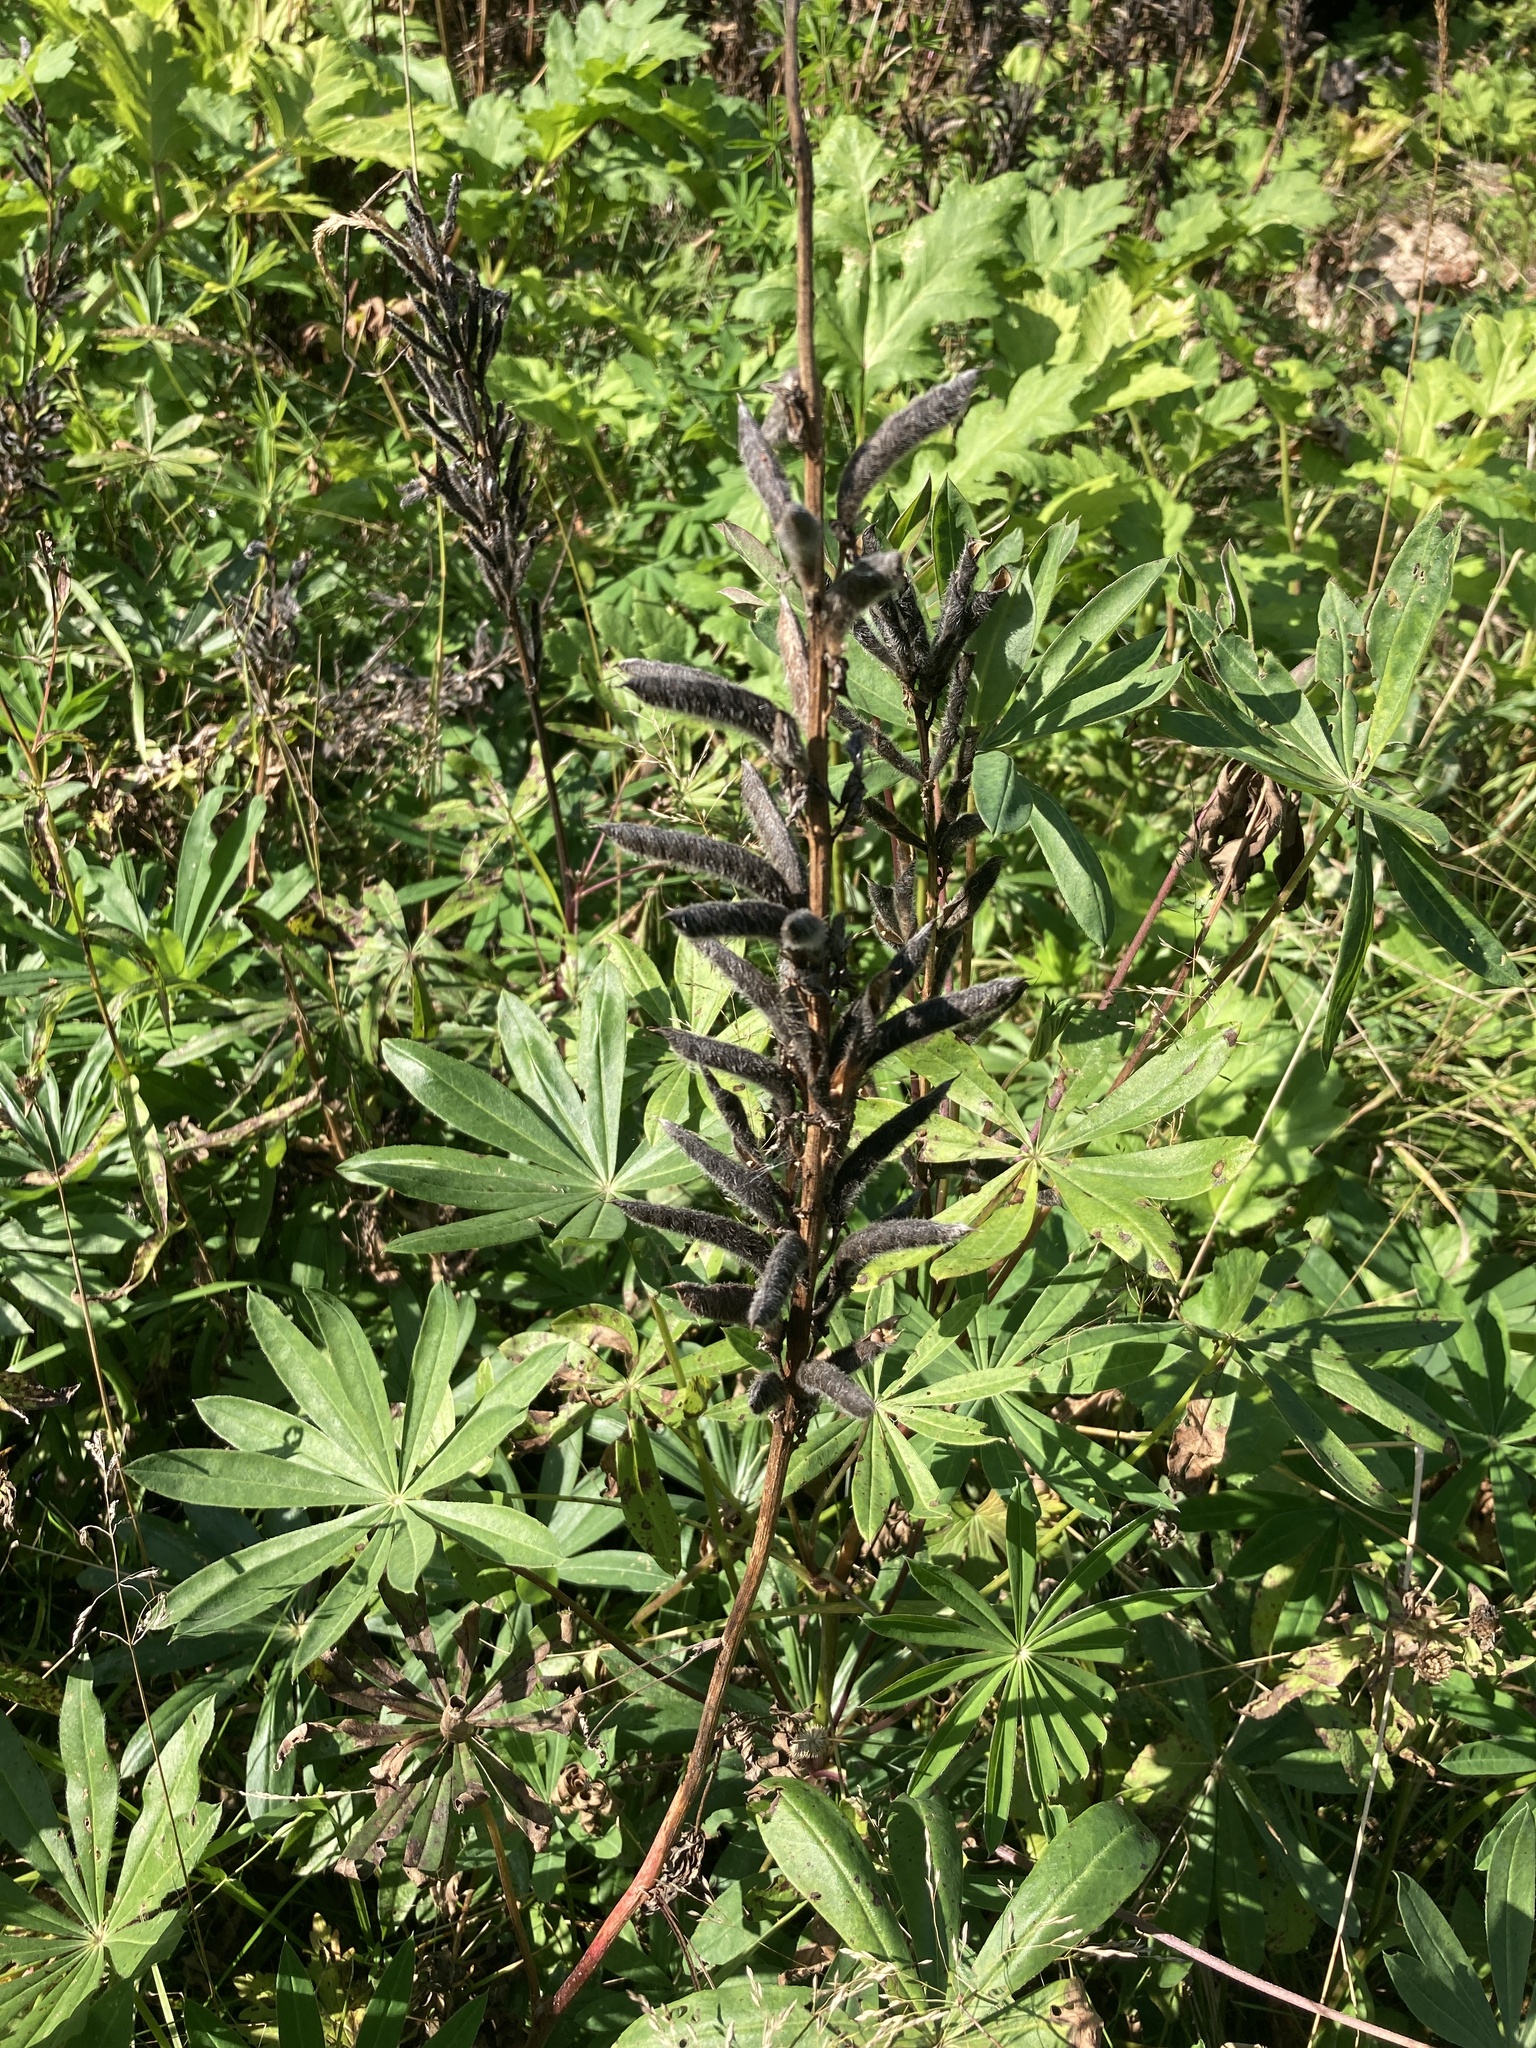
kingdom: Plantae
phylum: Tracheophyta
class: Magnoliopsida
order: Fabales
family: Fabaceae
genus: Lupinus
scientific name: Lupinus polyphyllus
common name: Garden lupin
